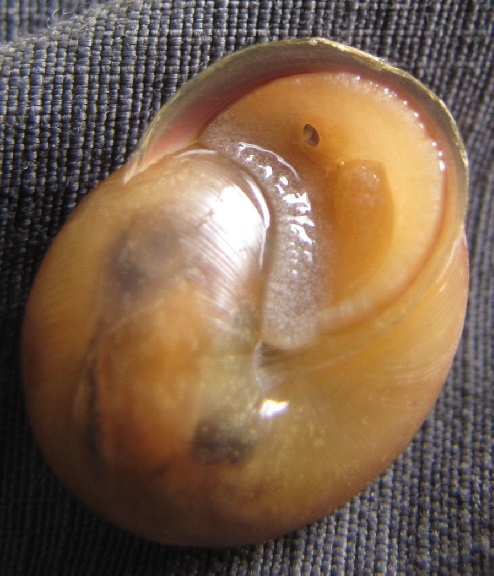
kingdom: Animalia
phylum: Mollusca
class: Gastropoda
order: Stylommatophora
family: Polygyridae
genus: Neohelix
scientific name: Neohelix albolabris
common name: Eastern whitelip
